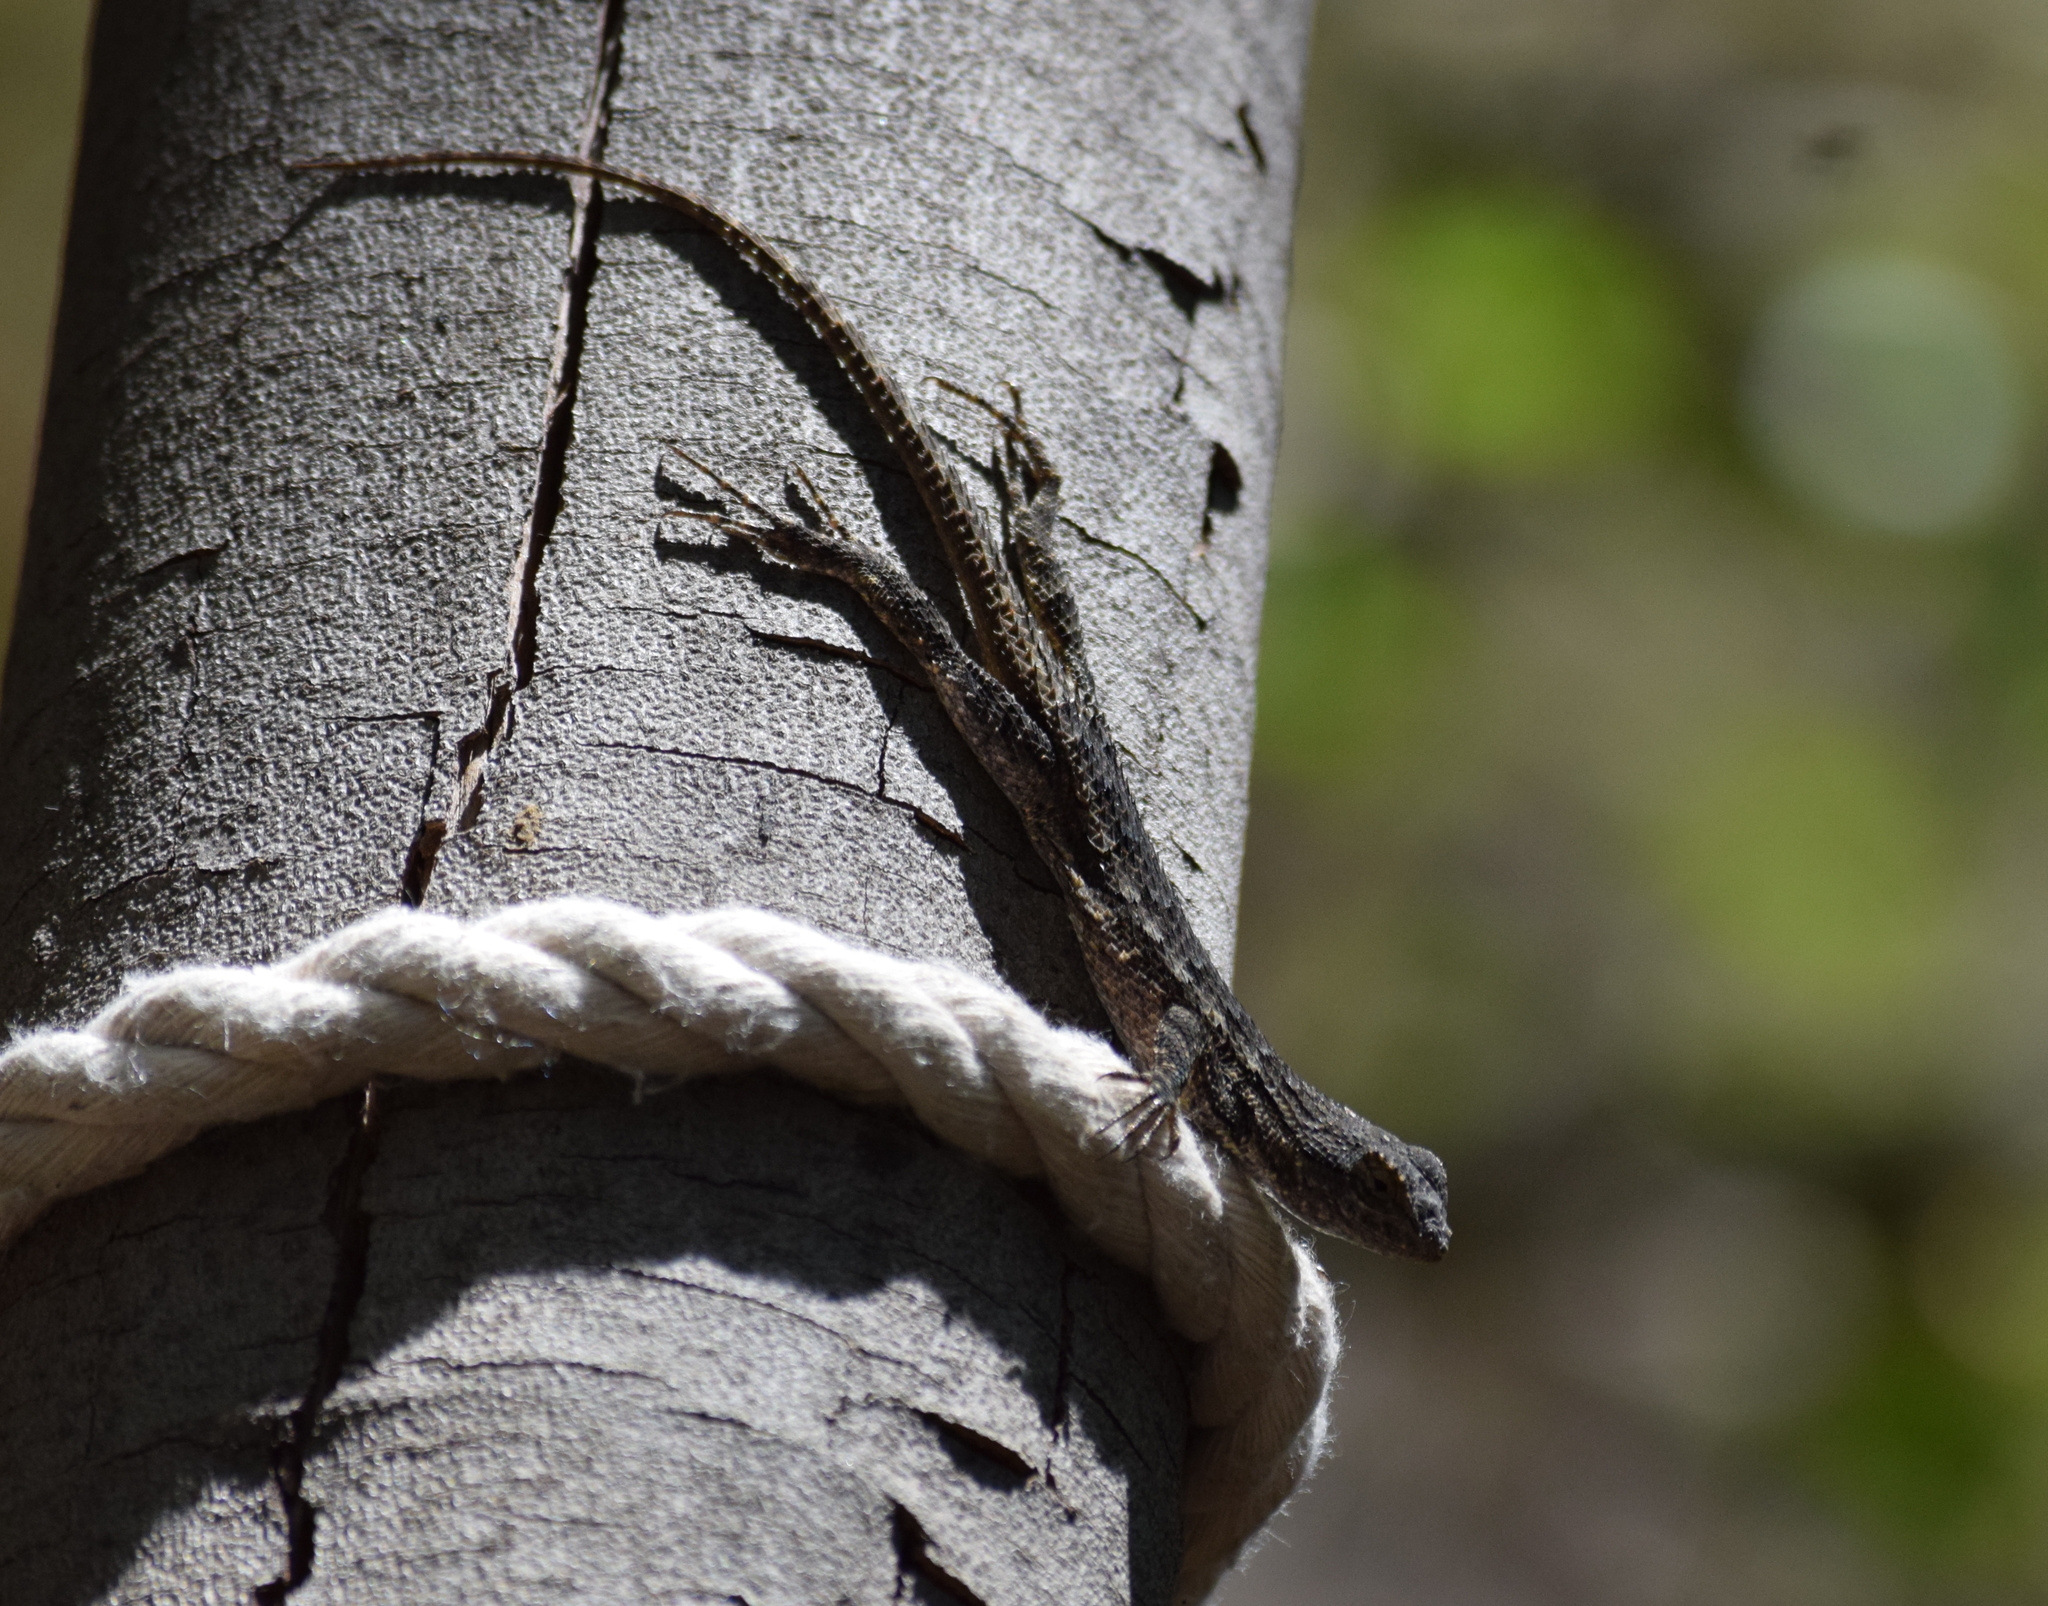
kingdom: Animalia
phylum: Chordata
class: Squamata
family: Phrynosomatidae
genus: Sceloporus
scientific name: Sceloporus occidentalis
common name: Western fence lizard
